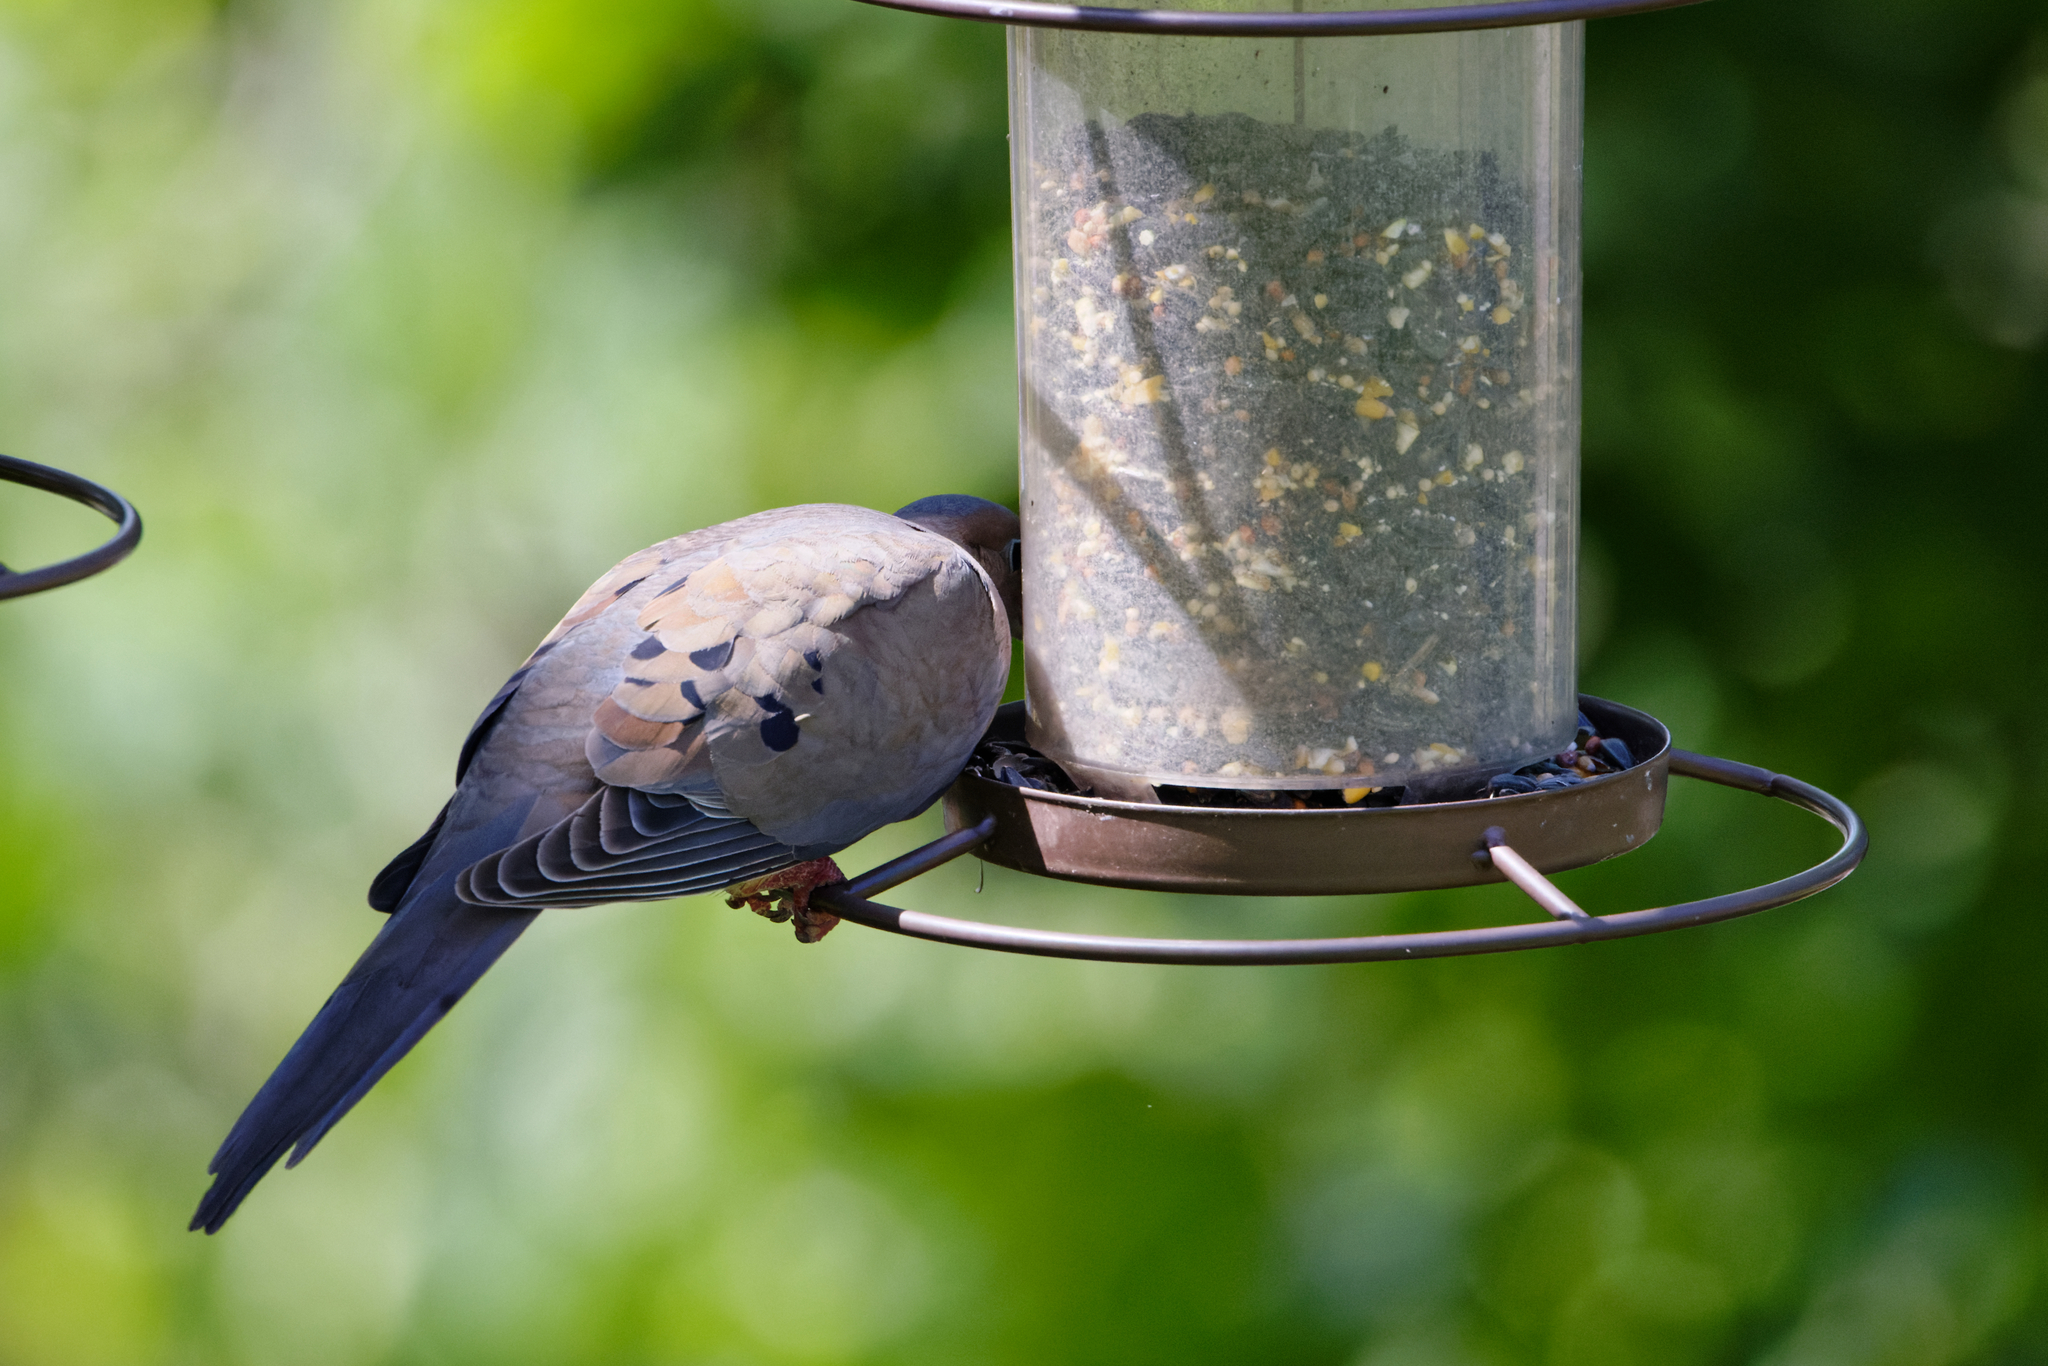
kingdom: Animalia
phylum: Chordata
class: Aves
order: Columbiformes
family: Columbidae
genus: Zenaida
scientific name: Zenaida macroura
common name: Mourning dove
